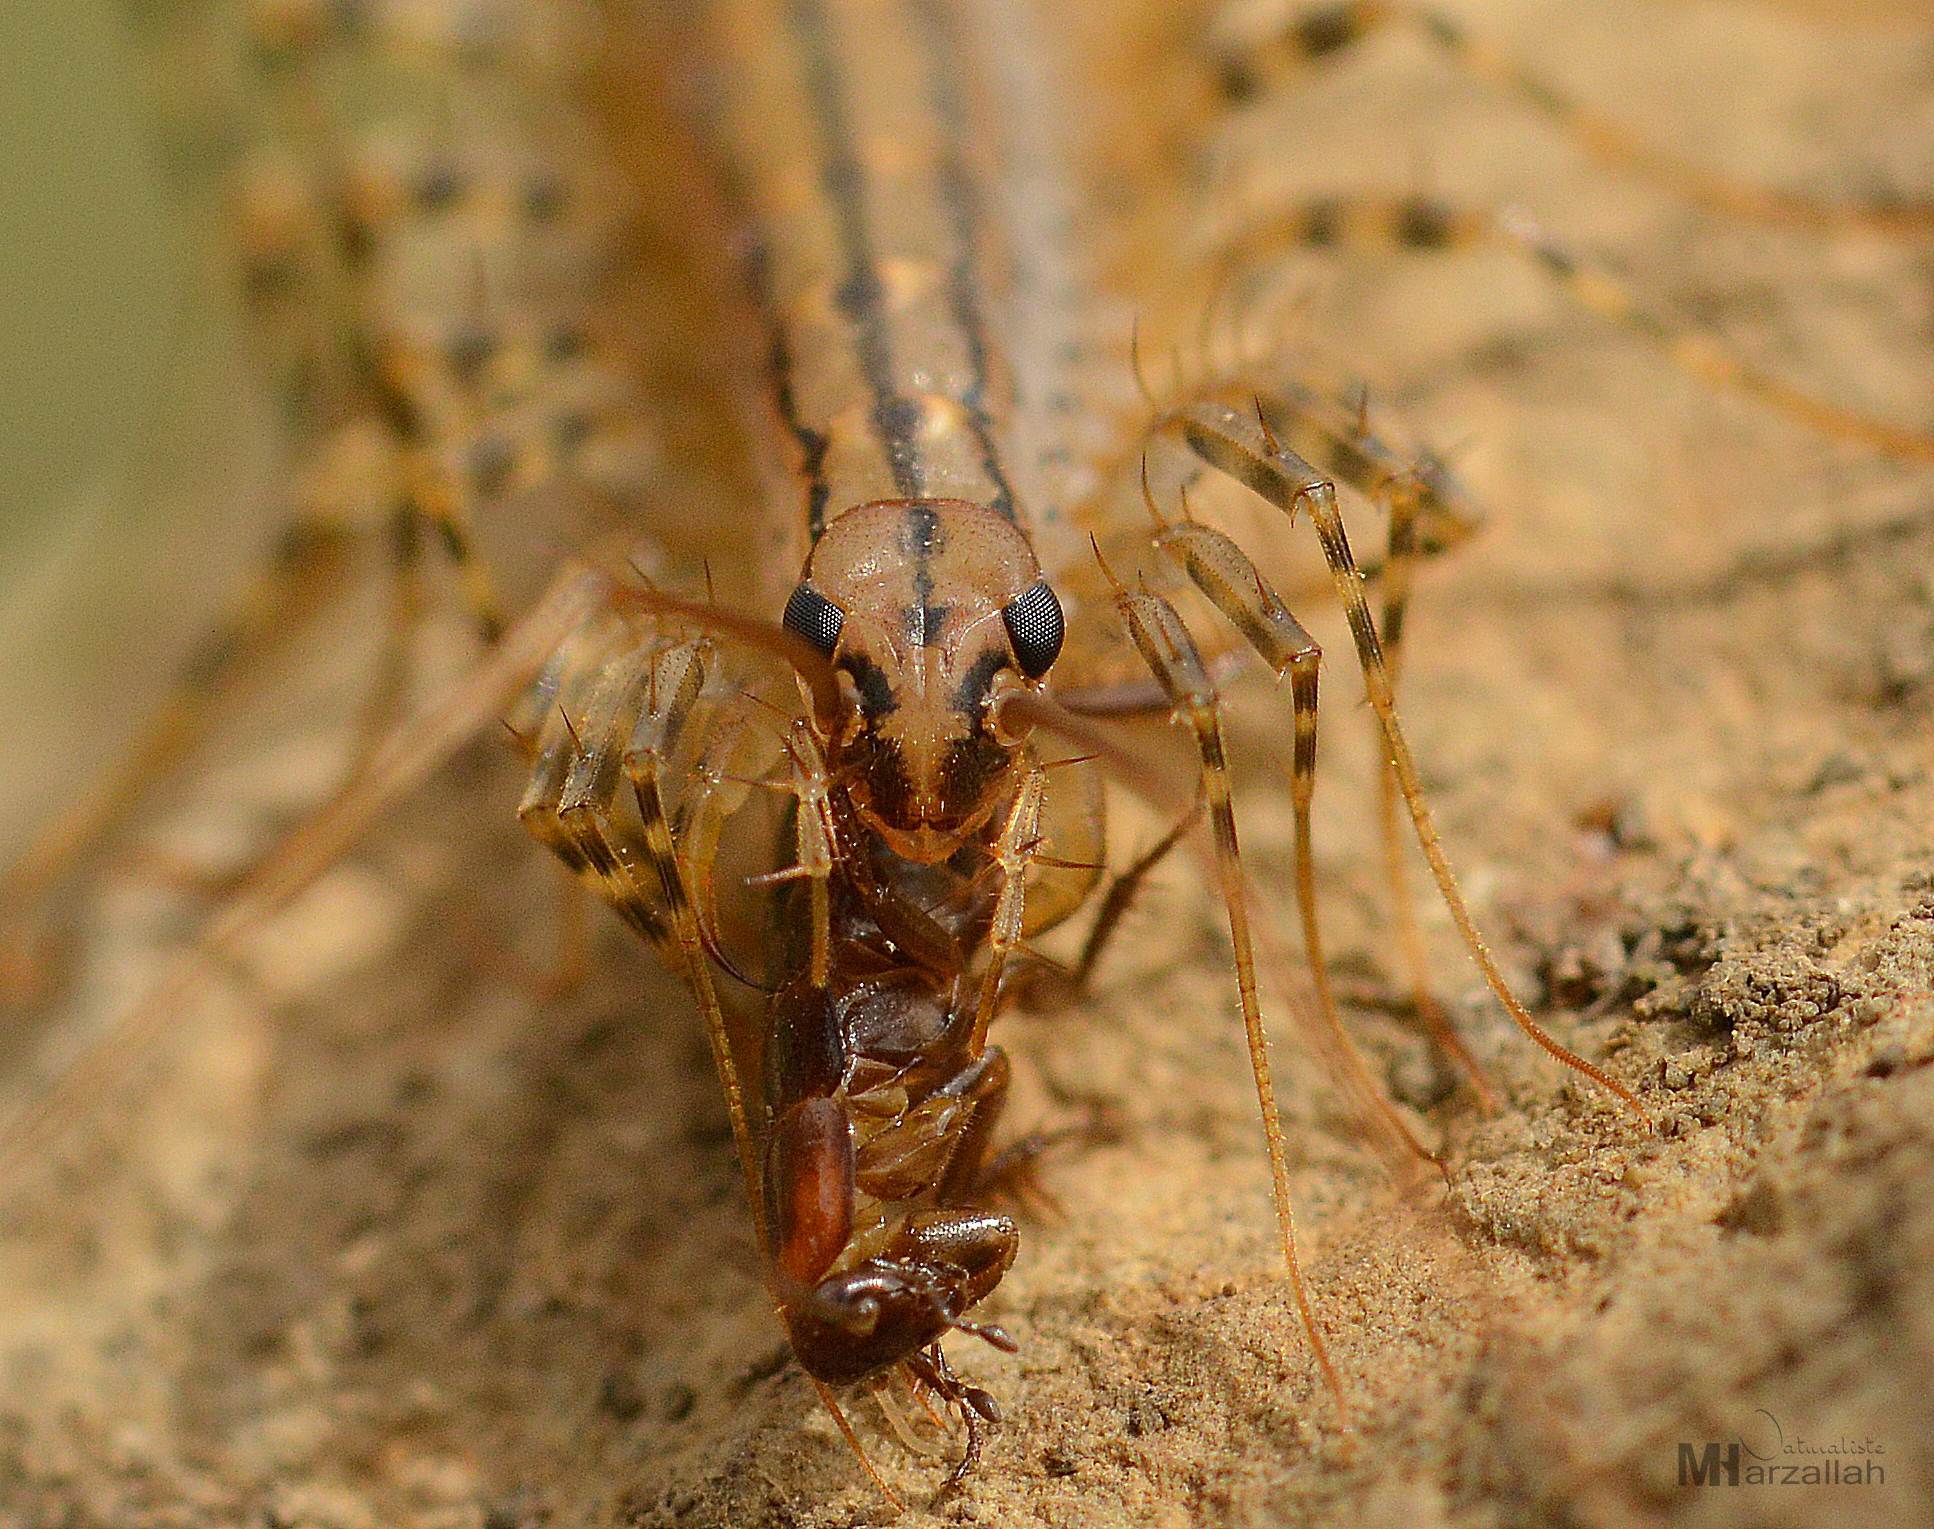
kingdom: Animalia
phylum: Arthropoda
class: Chilopoda
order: Scutigeromorpha
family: Scutigeridae
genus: Scutigera
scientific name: Scutigera coleoptrata
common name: House centipede
